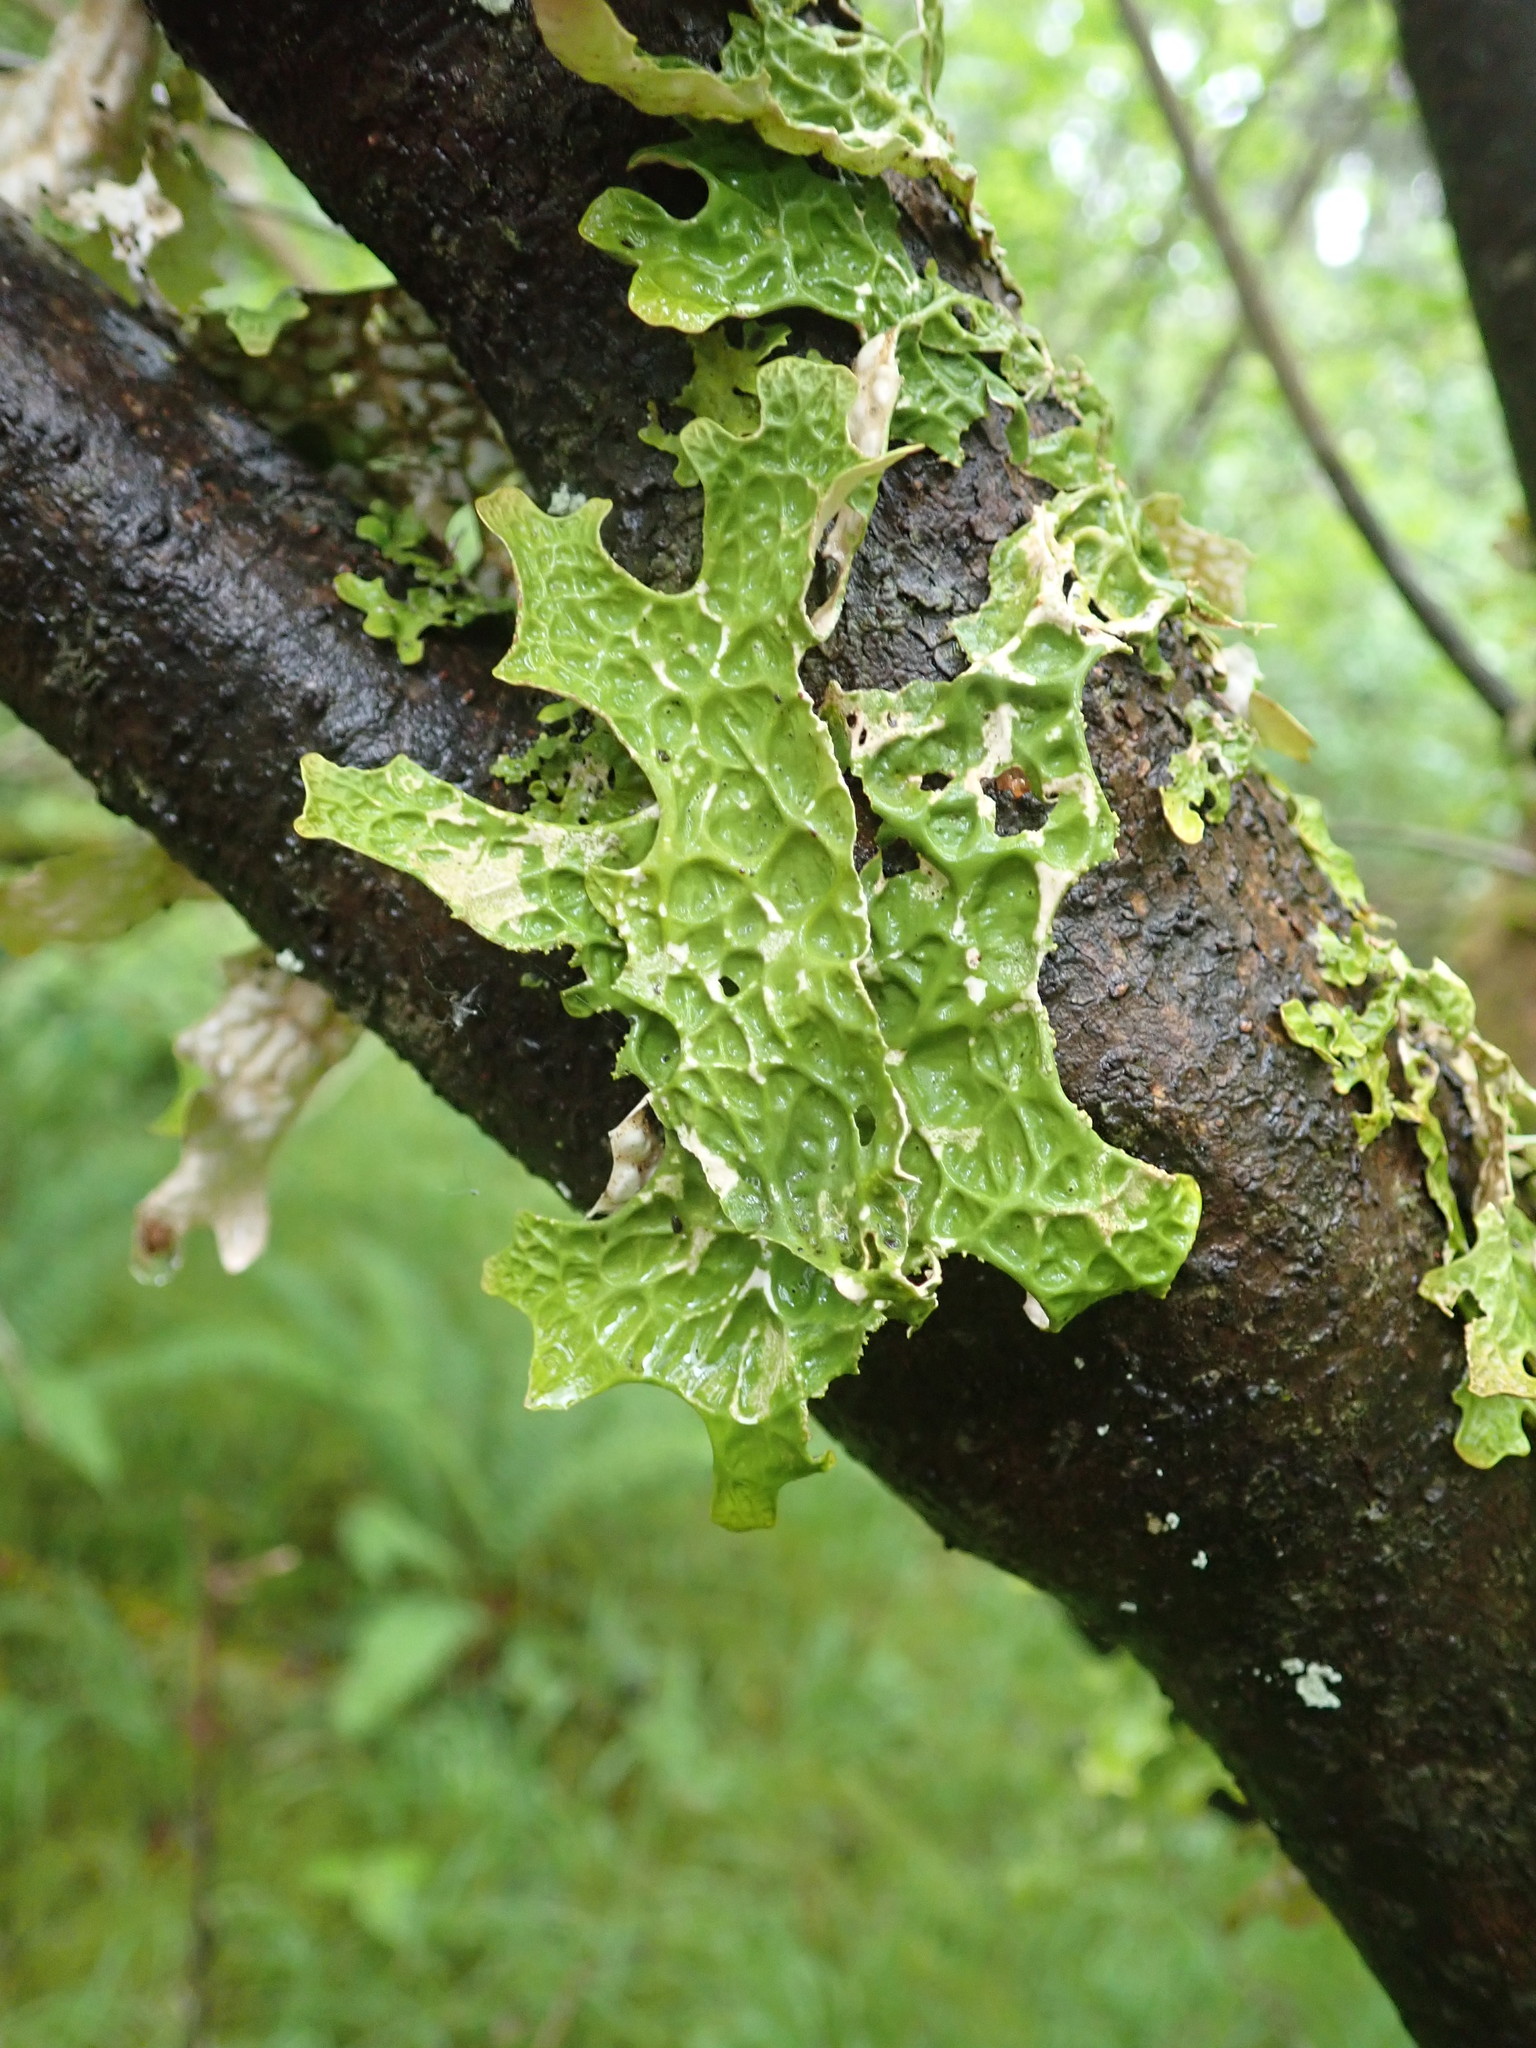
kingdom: Fungi
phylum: Ascomycota
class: Lecanoromycetes
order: Peltigerales
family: Lobariaceae
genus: Lobaria
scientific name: Lobaria pulmonaria
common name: Lungwort
